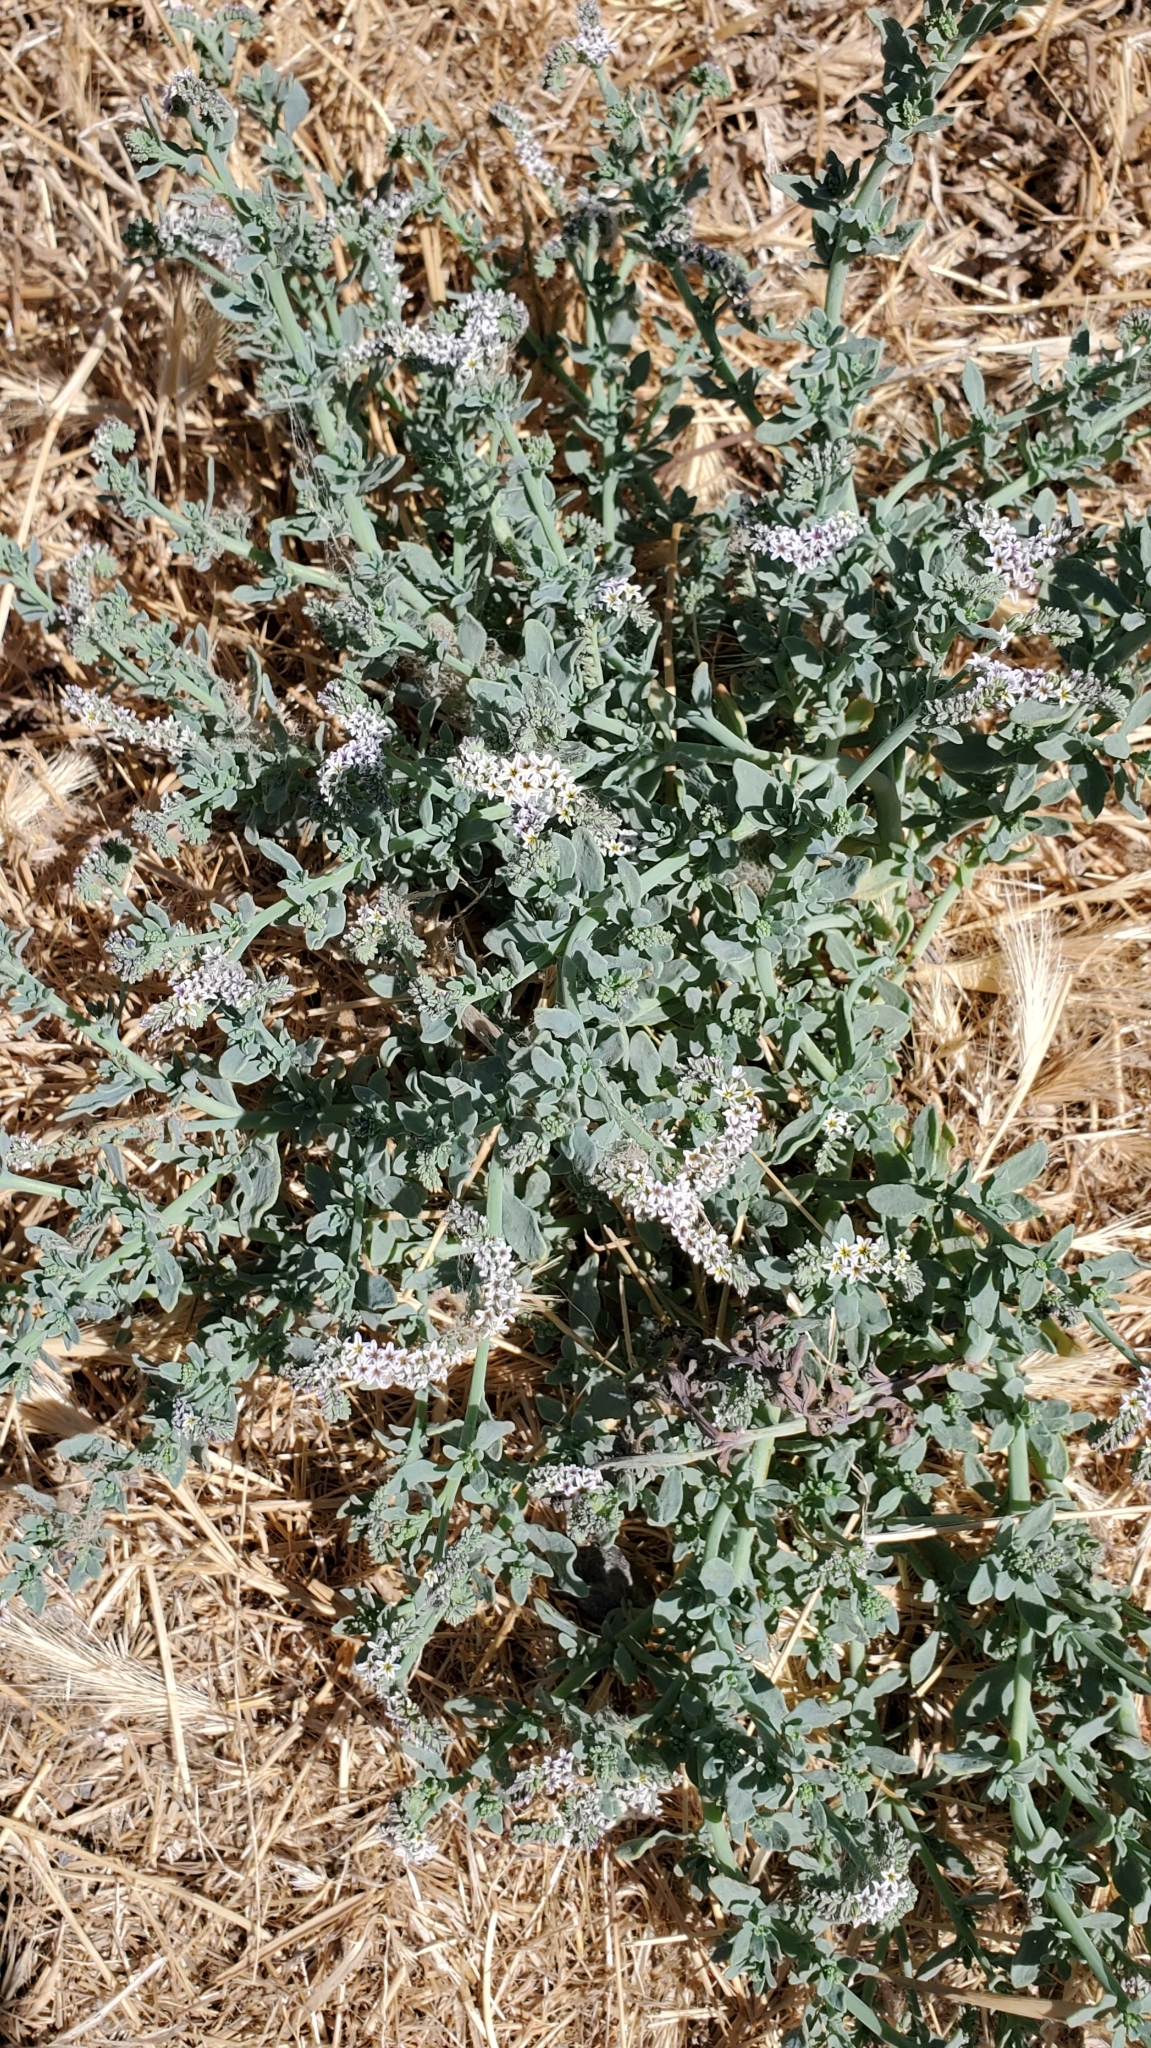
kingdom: Plantae
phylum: Tracheophyta
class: Magnoliopsida
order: Boraginales
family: Heliotropiaceae
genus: Heliotropium
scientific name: Heliotropium curassavicum
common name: Seaside heliotrope
